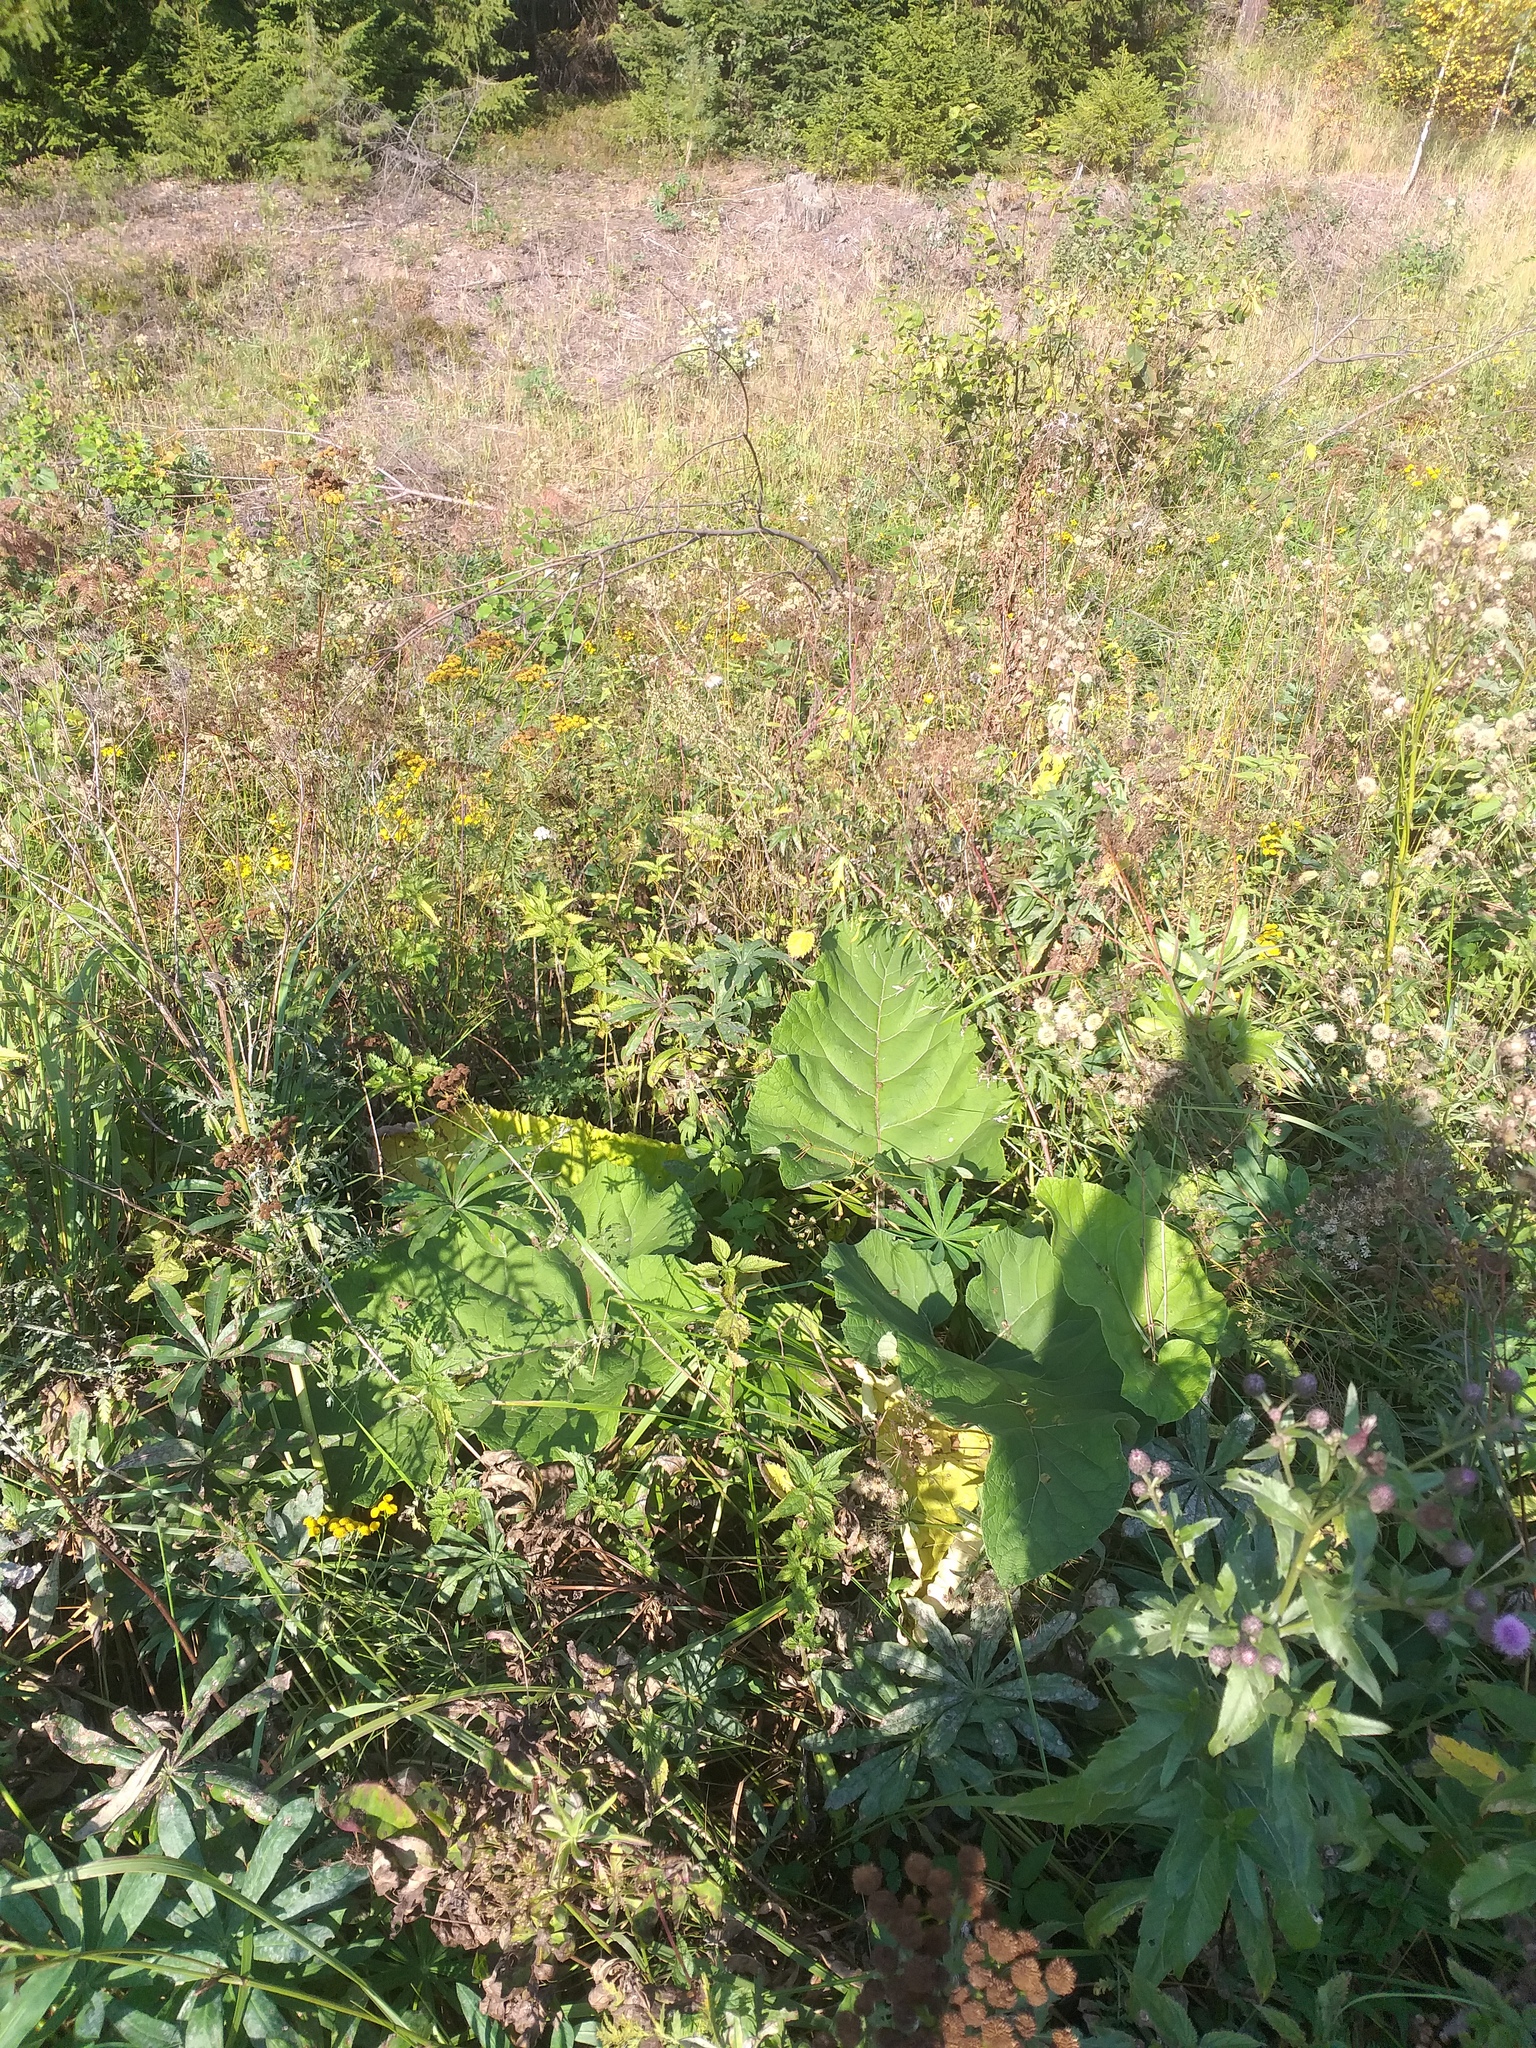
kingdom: Plantae
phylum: Tracheophyta
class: Magnoliopsida
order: Asterales
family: Asteraceae
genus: Arctium
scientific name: Arctium
